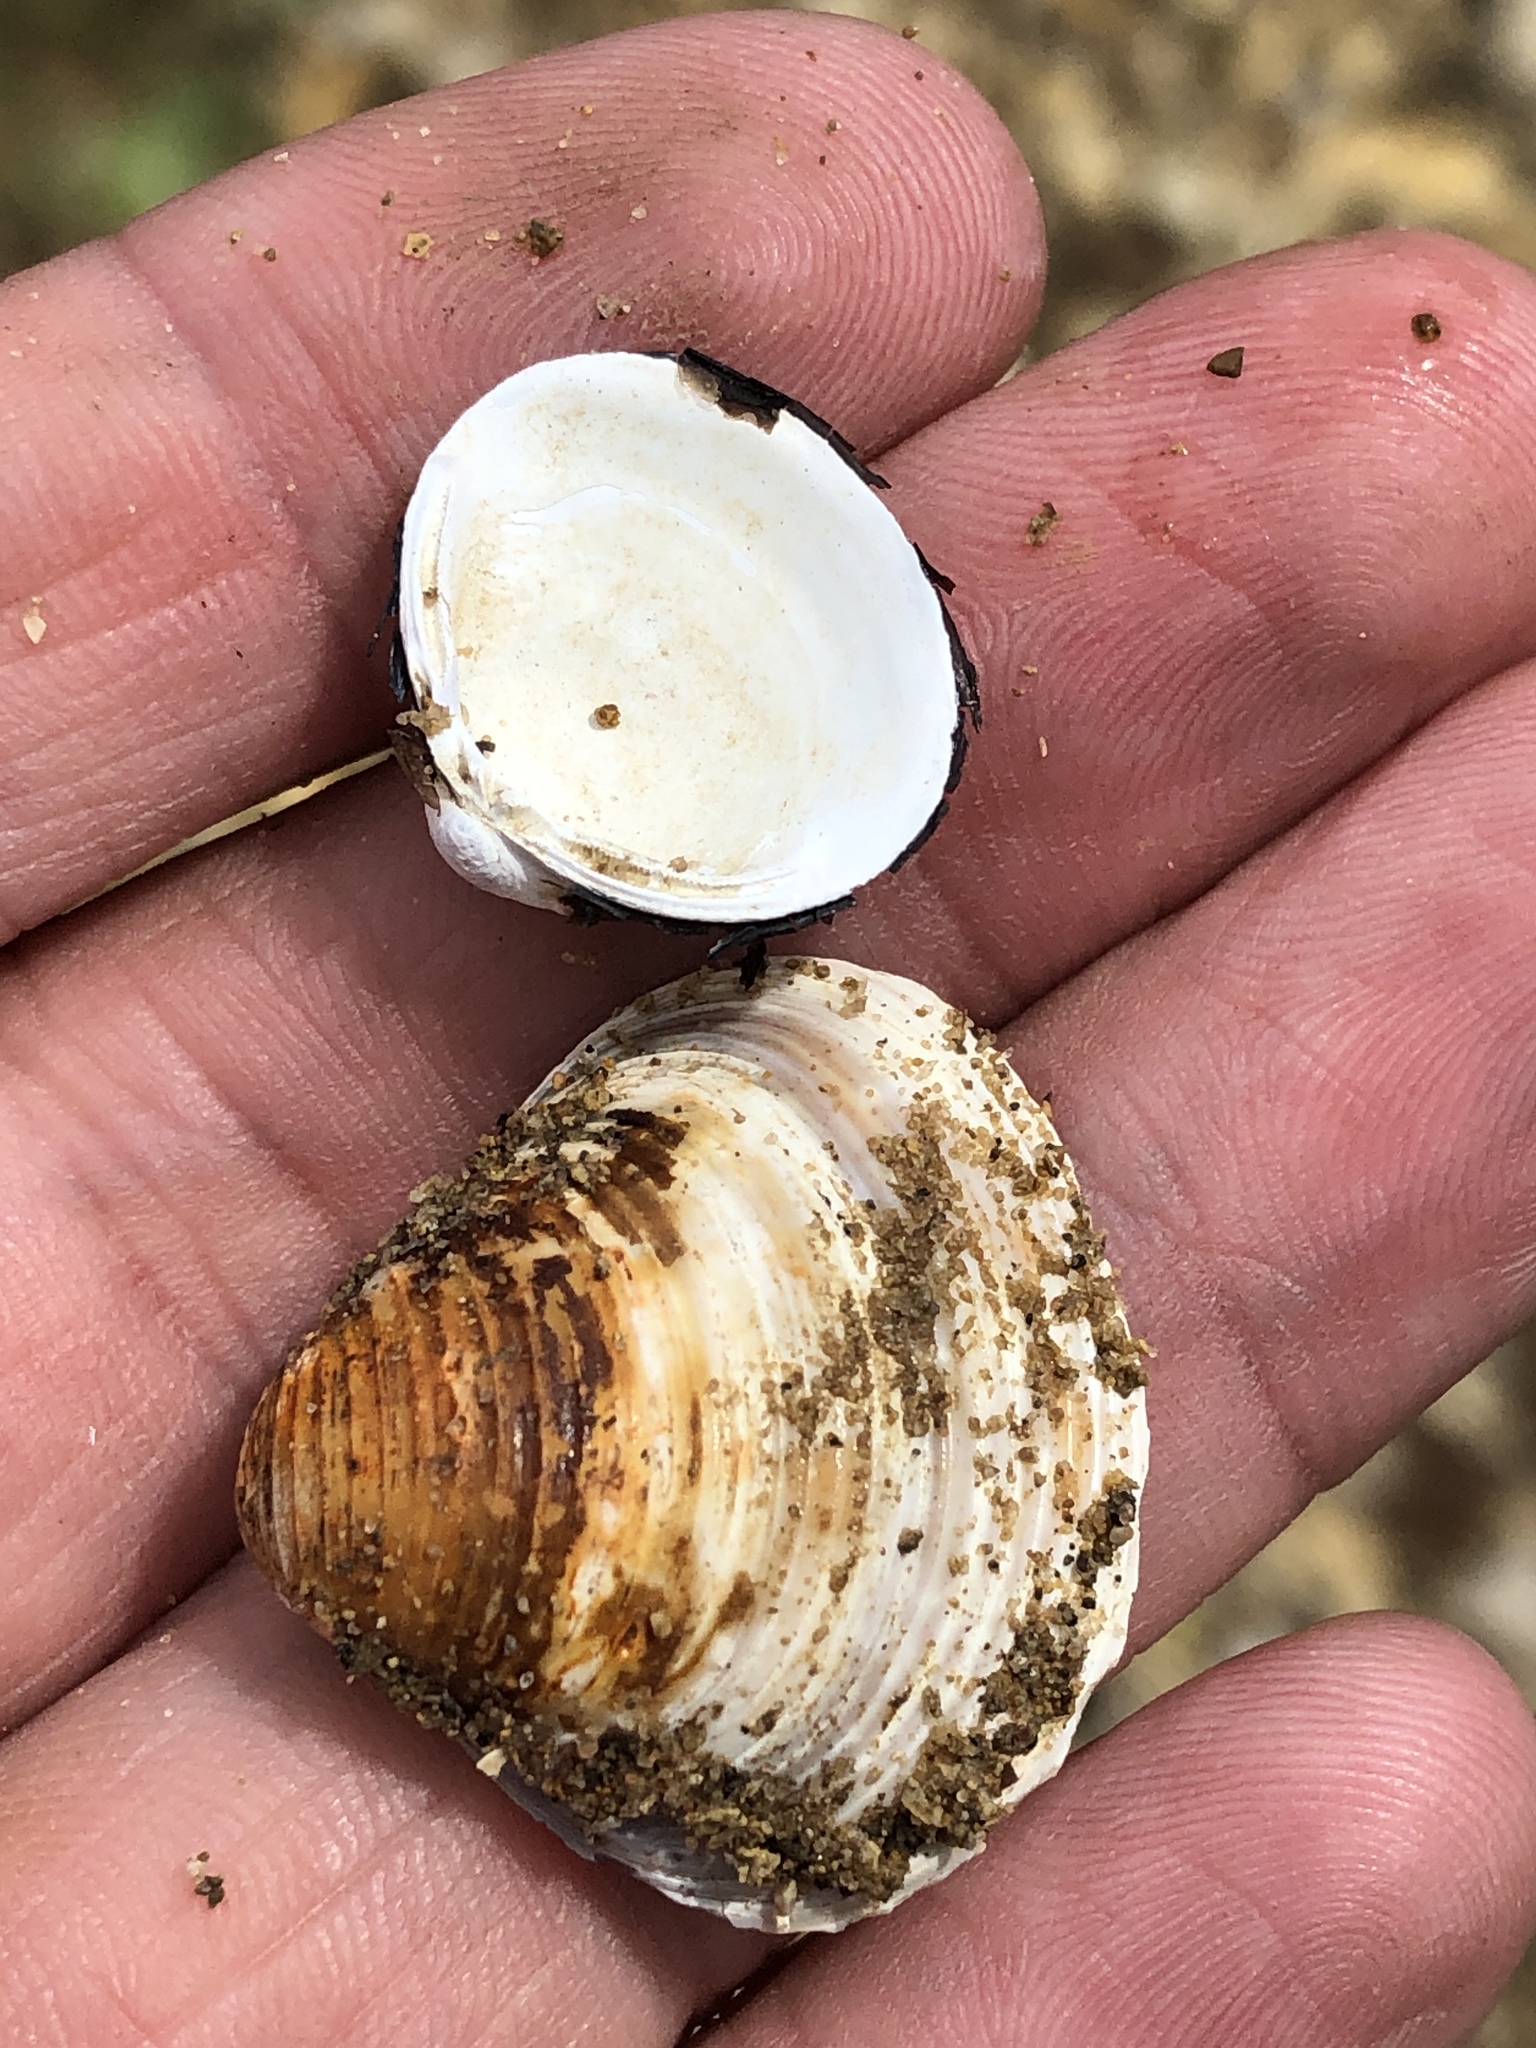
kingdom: Animalia
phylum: Mollusca
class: Bivalvia
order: Venerida
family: Cyrenidae
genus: Corbicula
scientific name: Corbicula fluminea
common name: Asian clam
